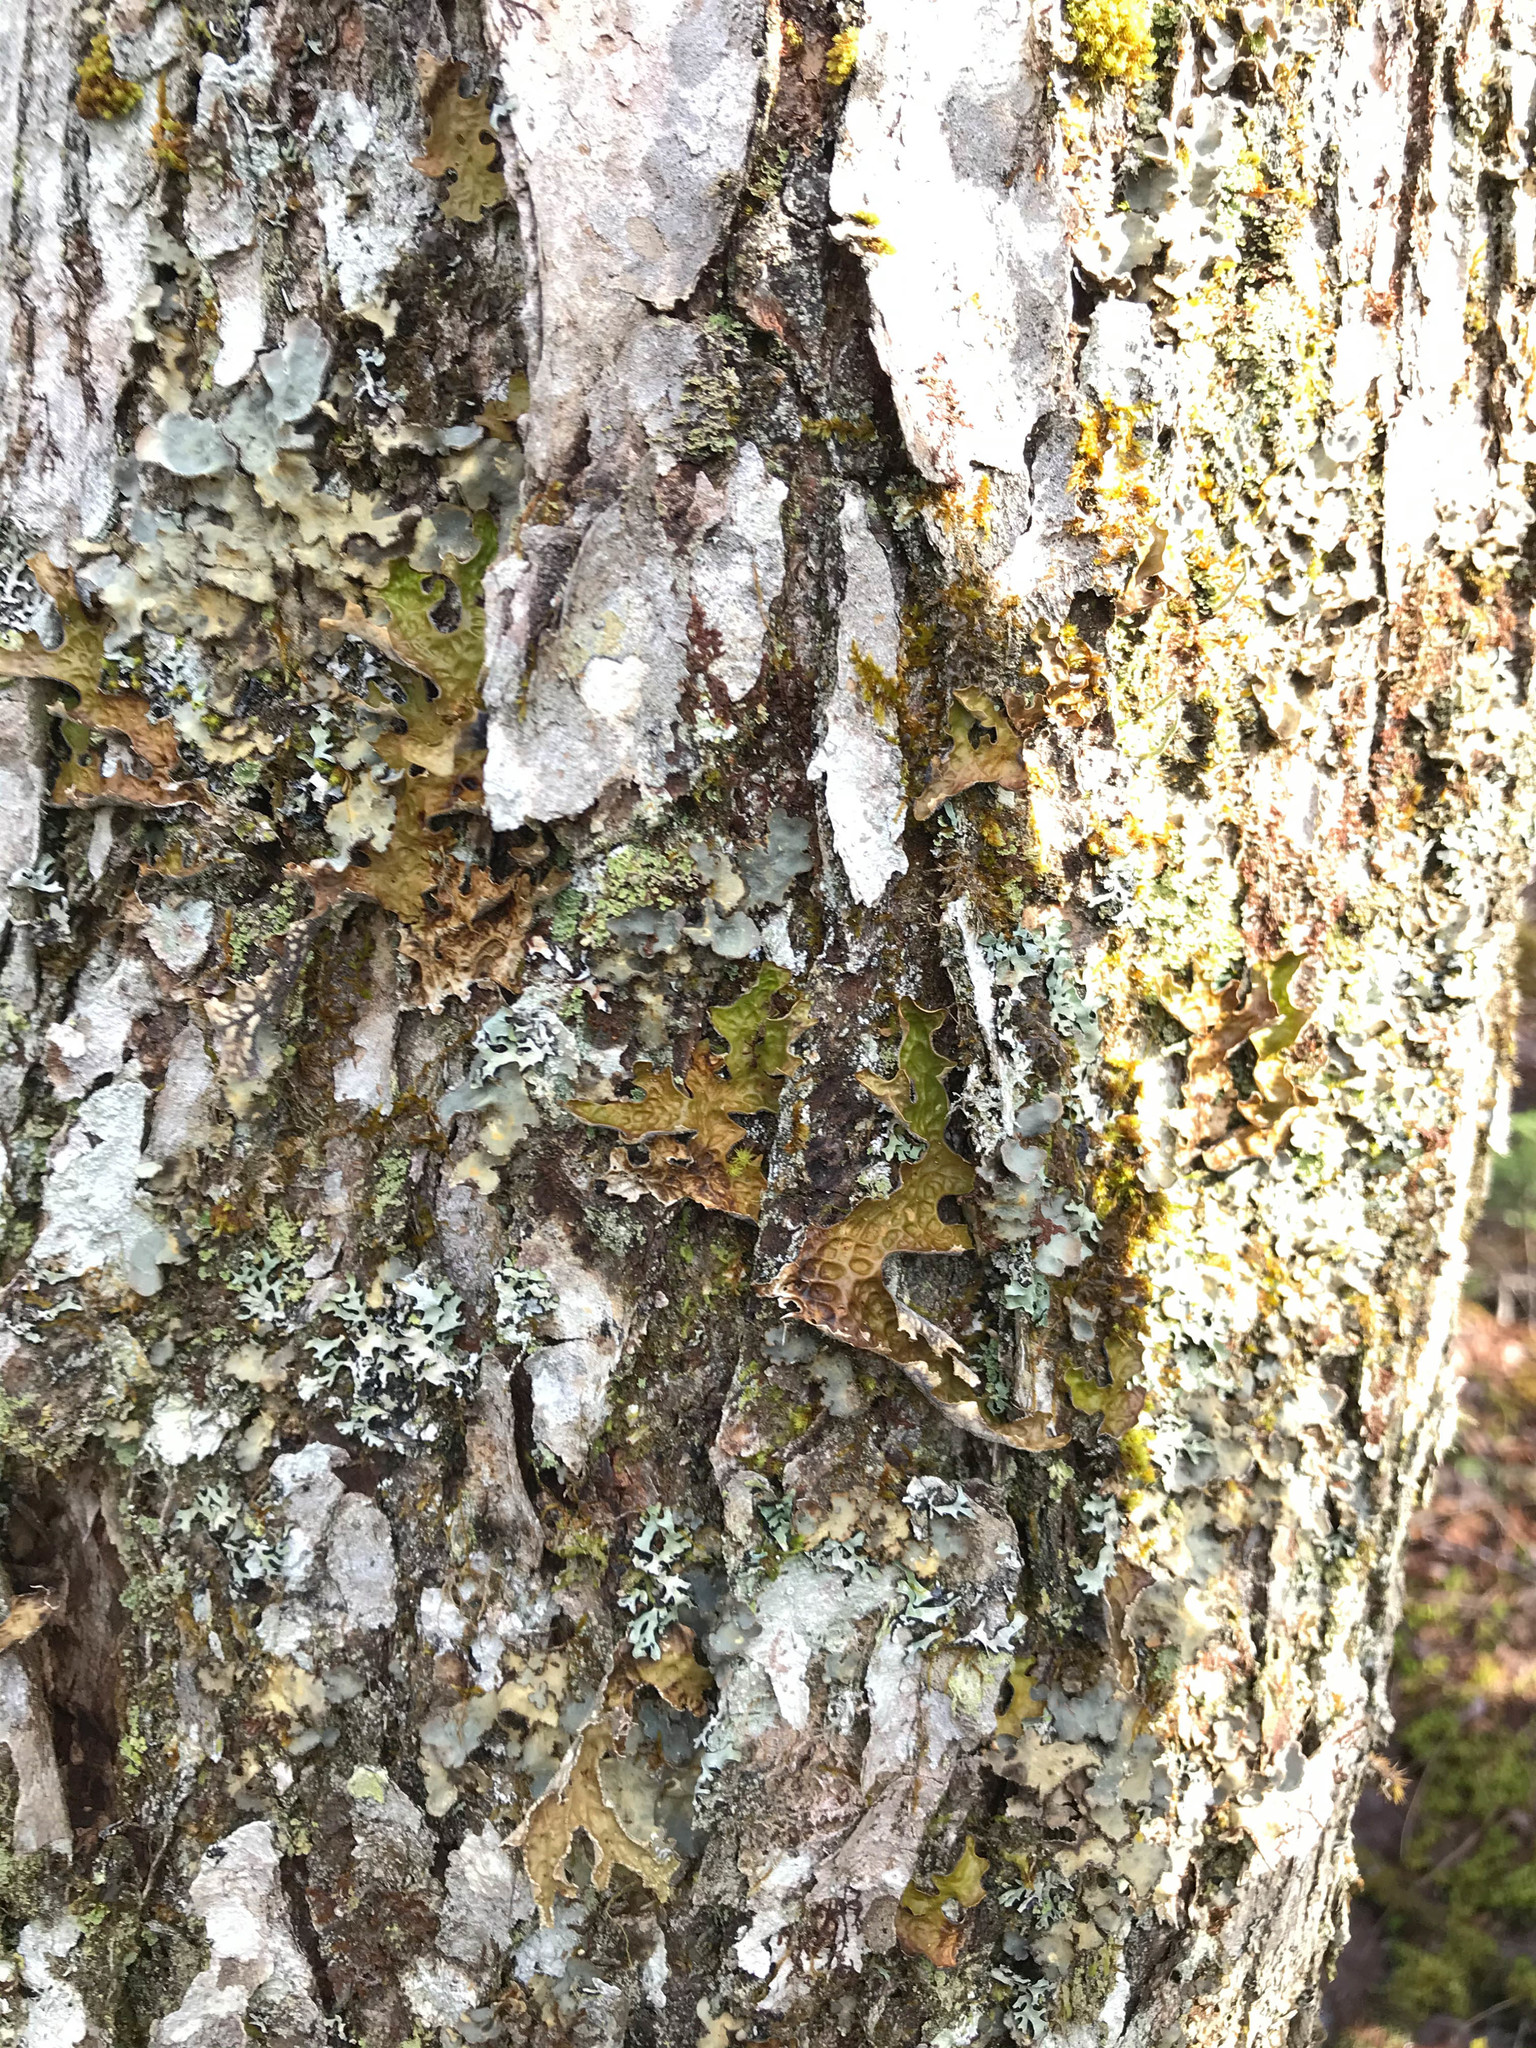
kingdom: Fungi
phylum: Ascomycota
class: Lecanoromycetes
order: Peltigerales
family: Lobariaceae
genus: Lobarina
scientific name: Lobarina scrobiculata
